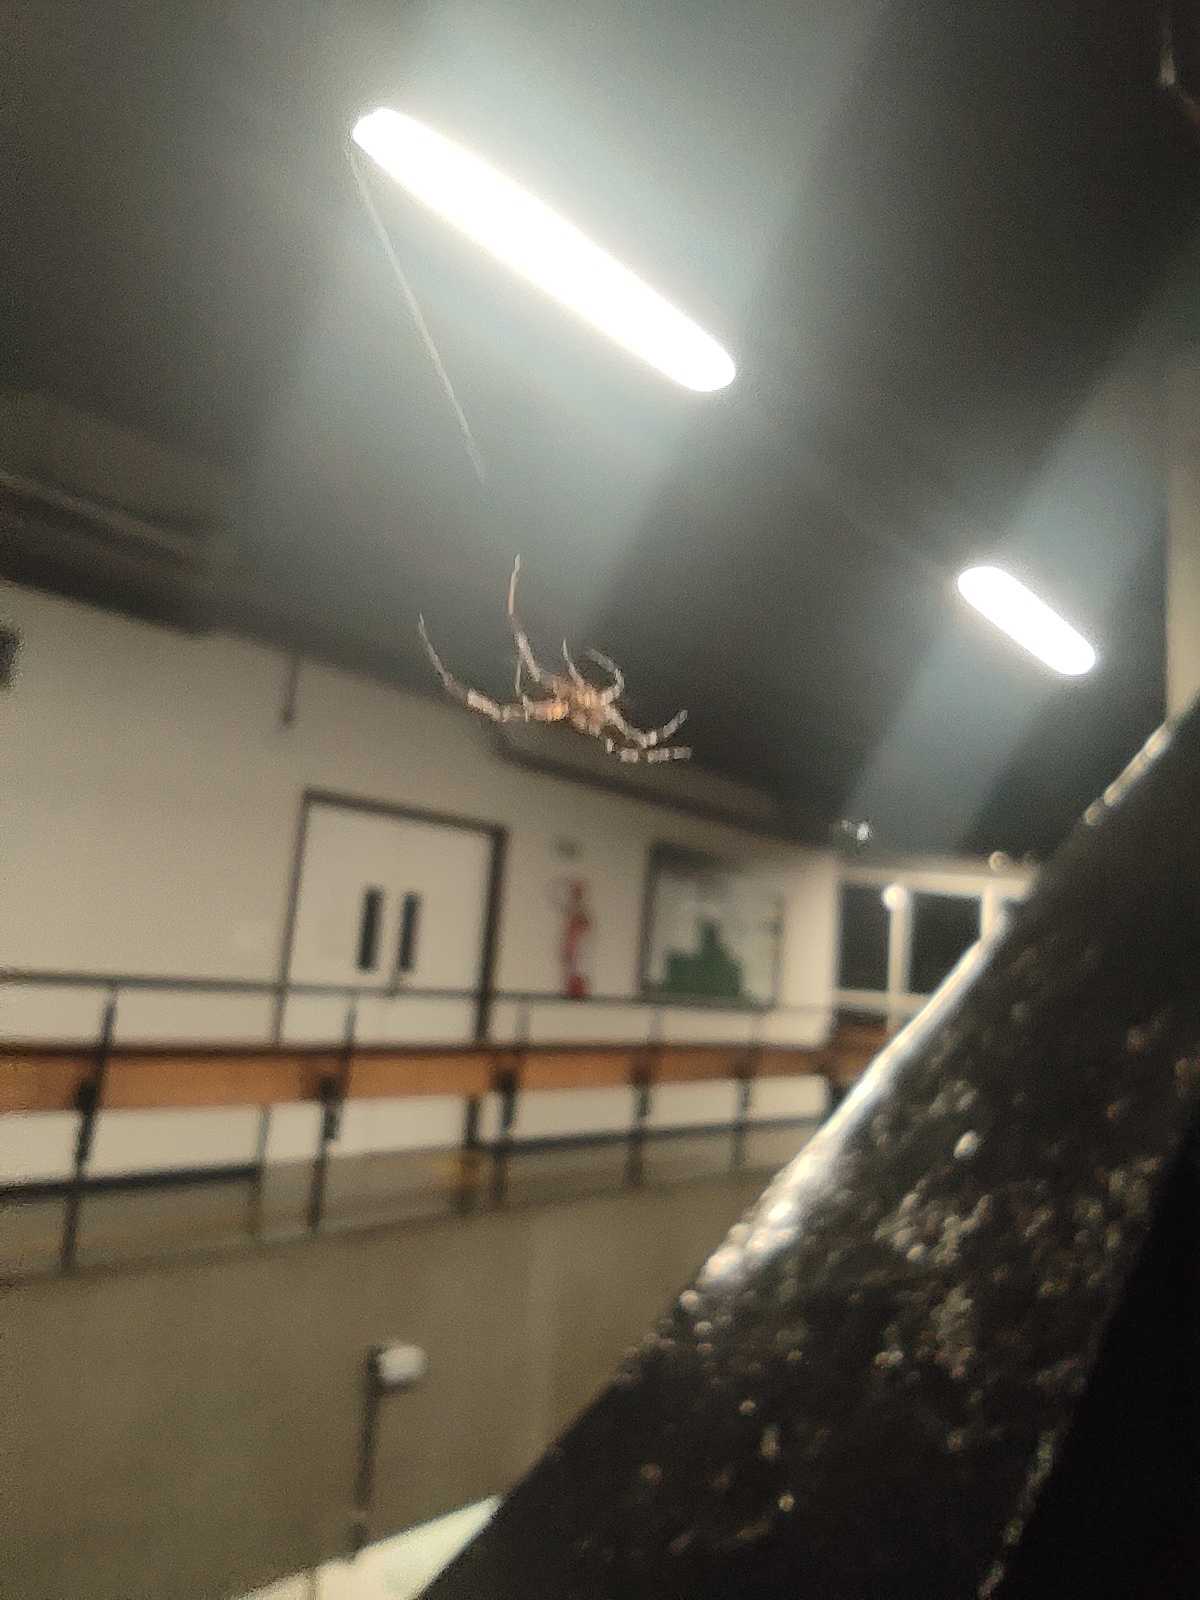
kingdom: Animalia
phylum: Arthropoda
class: Arachnida
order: Araneae
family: Uloboridae
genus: Zosis
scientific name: Zosis geniculata
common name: Hackled orb weavers
